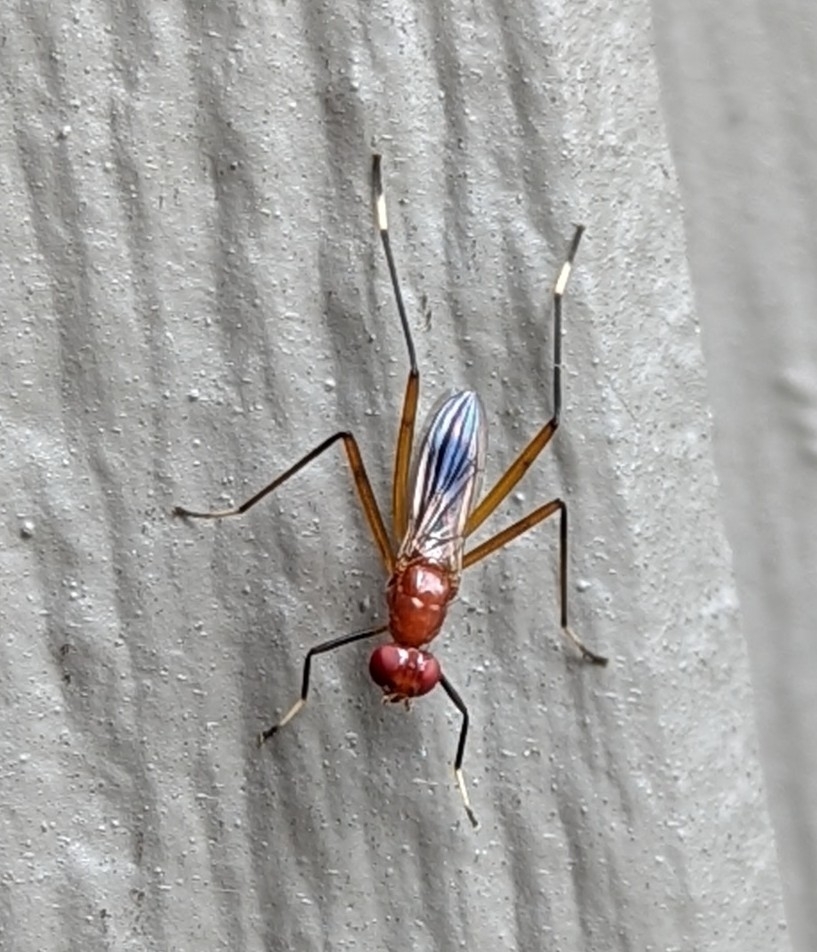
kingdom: Animalia
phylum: Arthropoda
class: Insecta
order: Diptera
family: Micropezidae
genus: Grallipeza
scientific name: Grallipeza nebulosa
